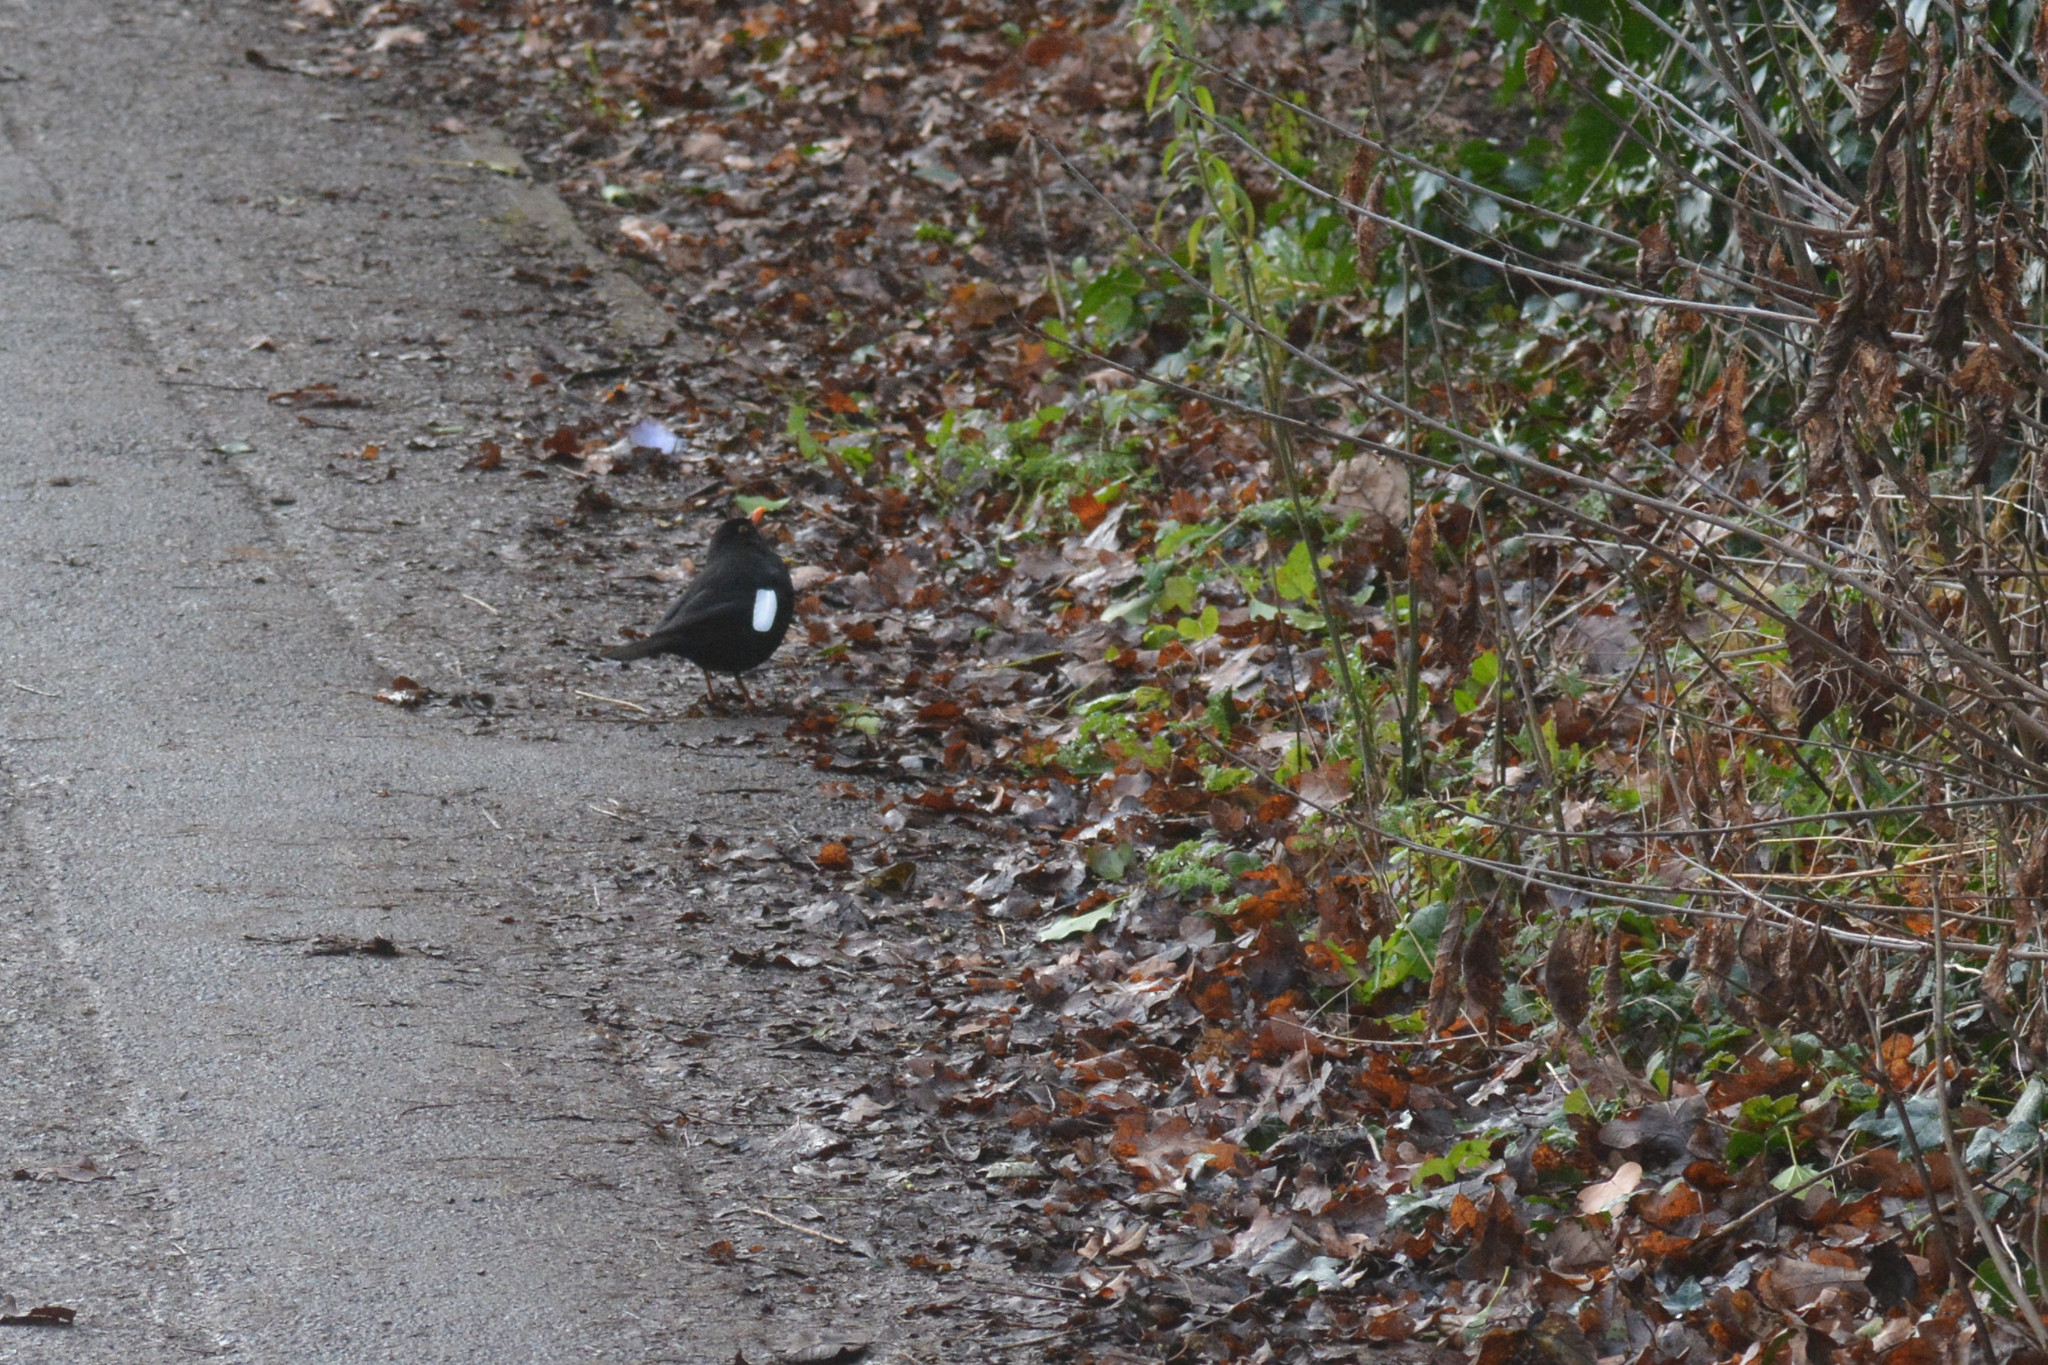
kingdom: Animalia
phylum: Chordata
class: Aves
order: Passeriformes
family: Turdidae
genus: Turdus
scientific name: Turdus merula
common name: Common blackbird
